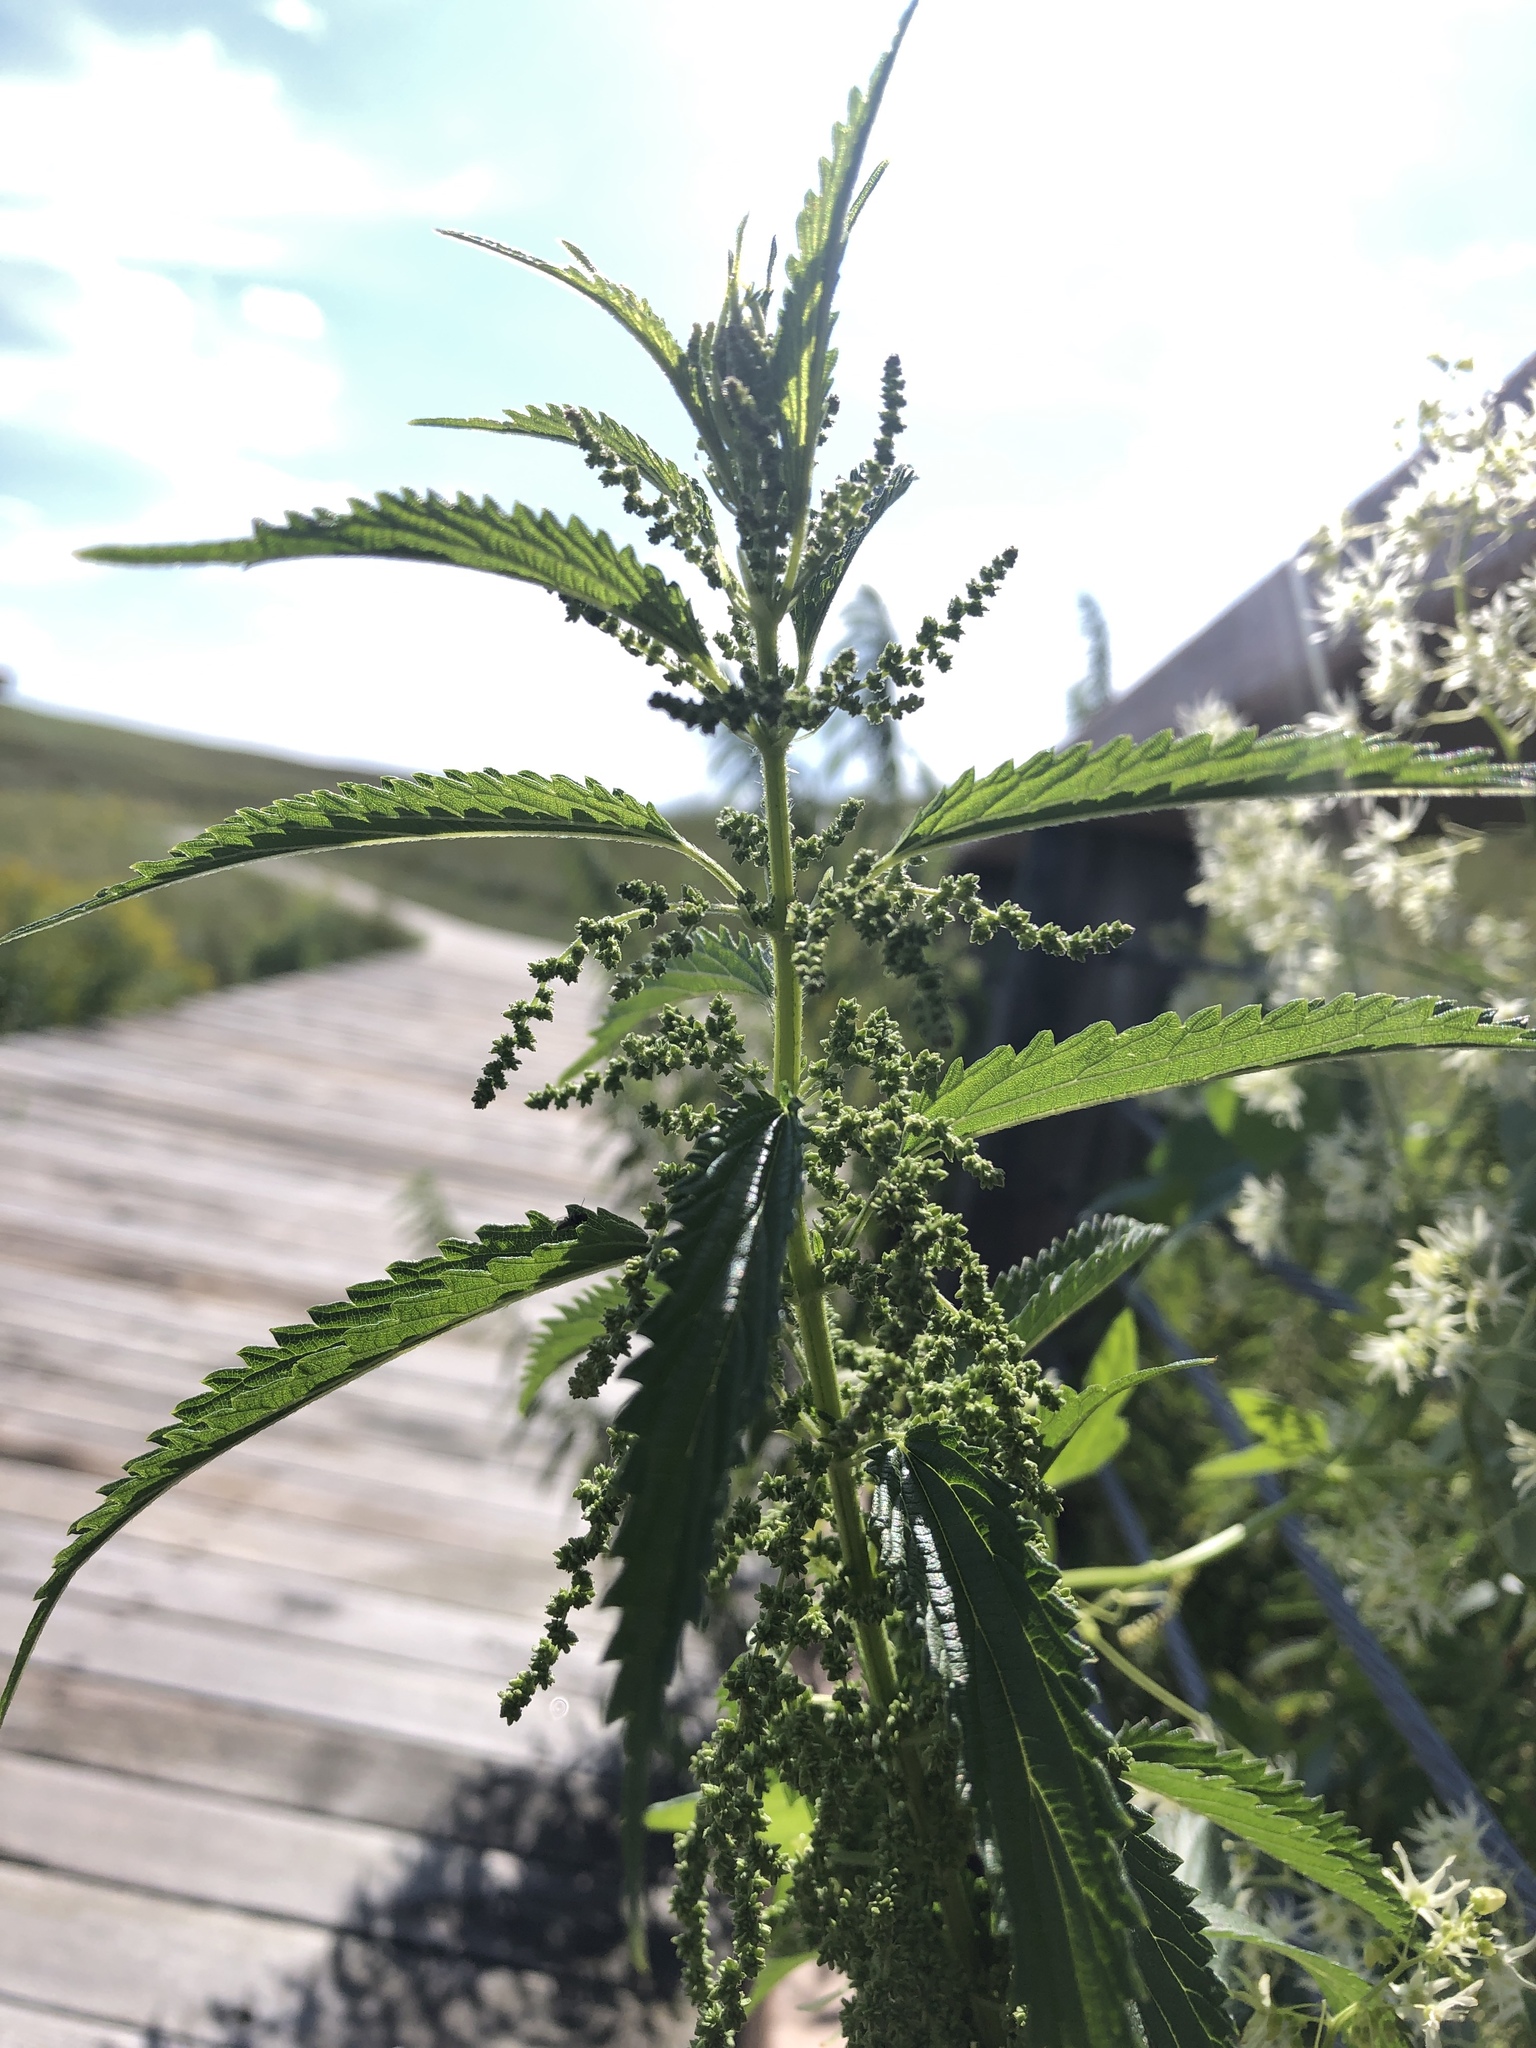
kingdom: Plantae
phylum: Tracheophyta
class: Magnoliopsida
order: Rosales
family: Urticaceae
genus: Urtica
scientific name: Urtica dioica
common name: Common nettle
